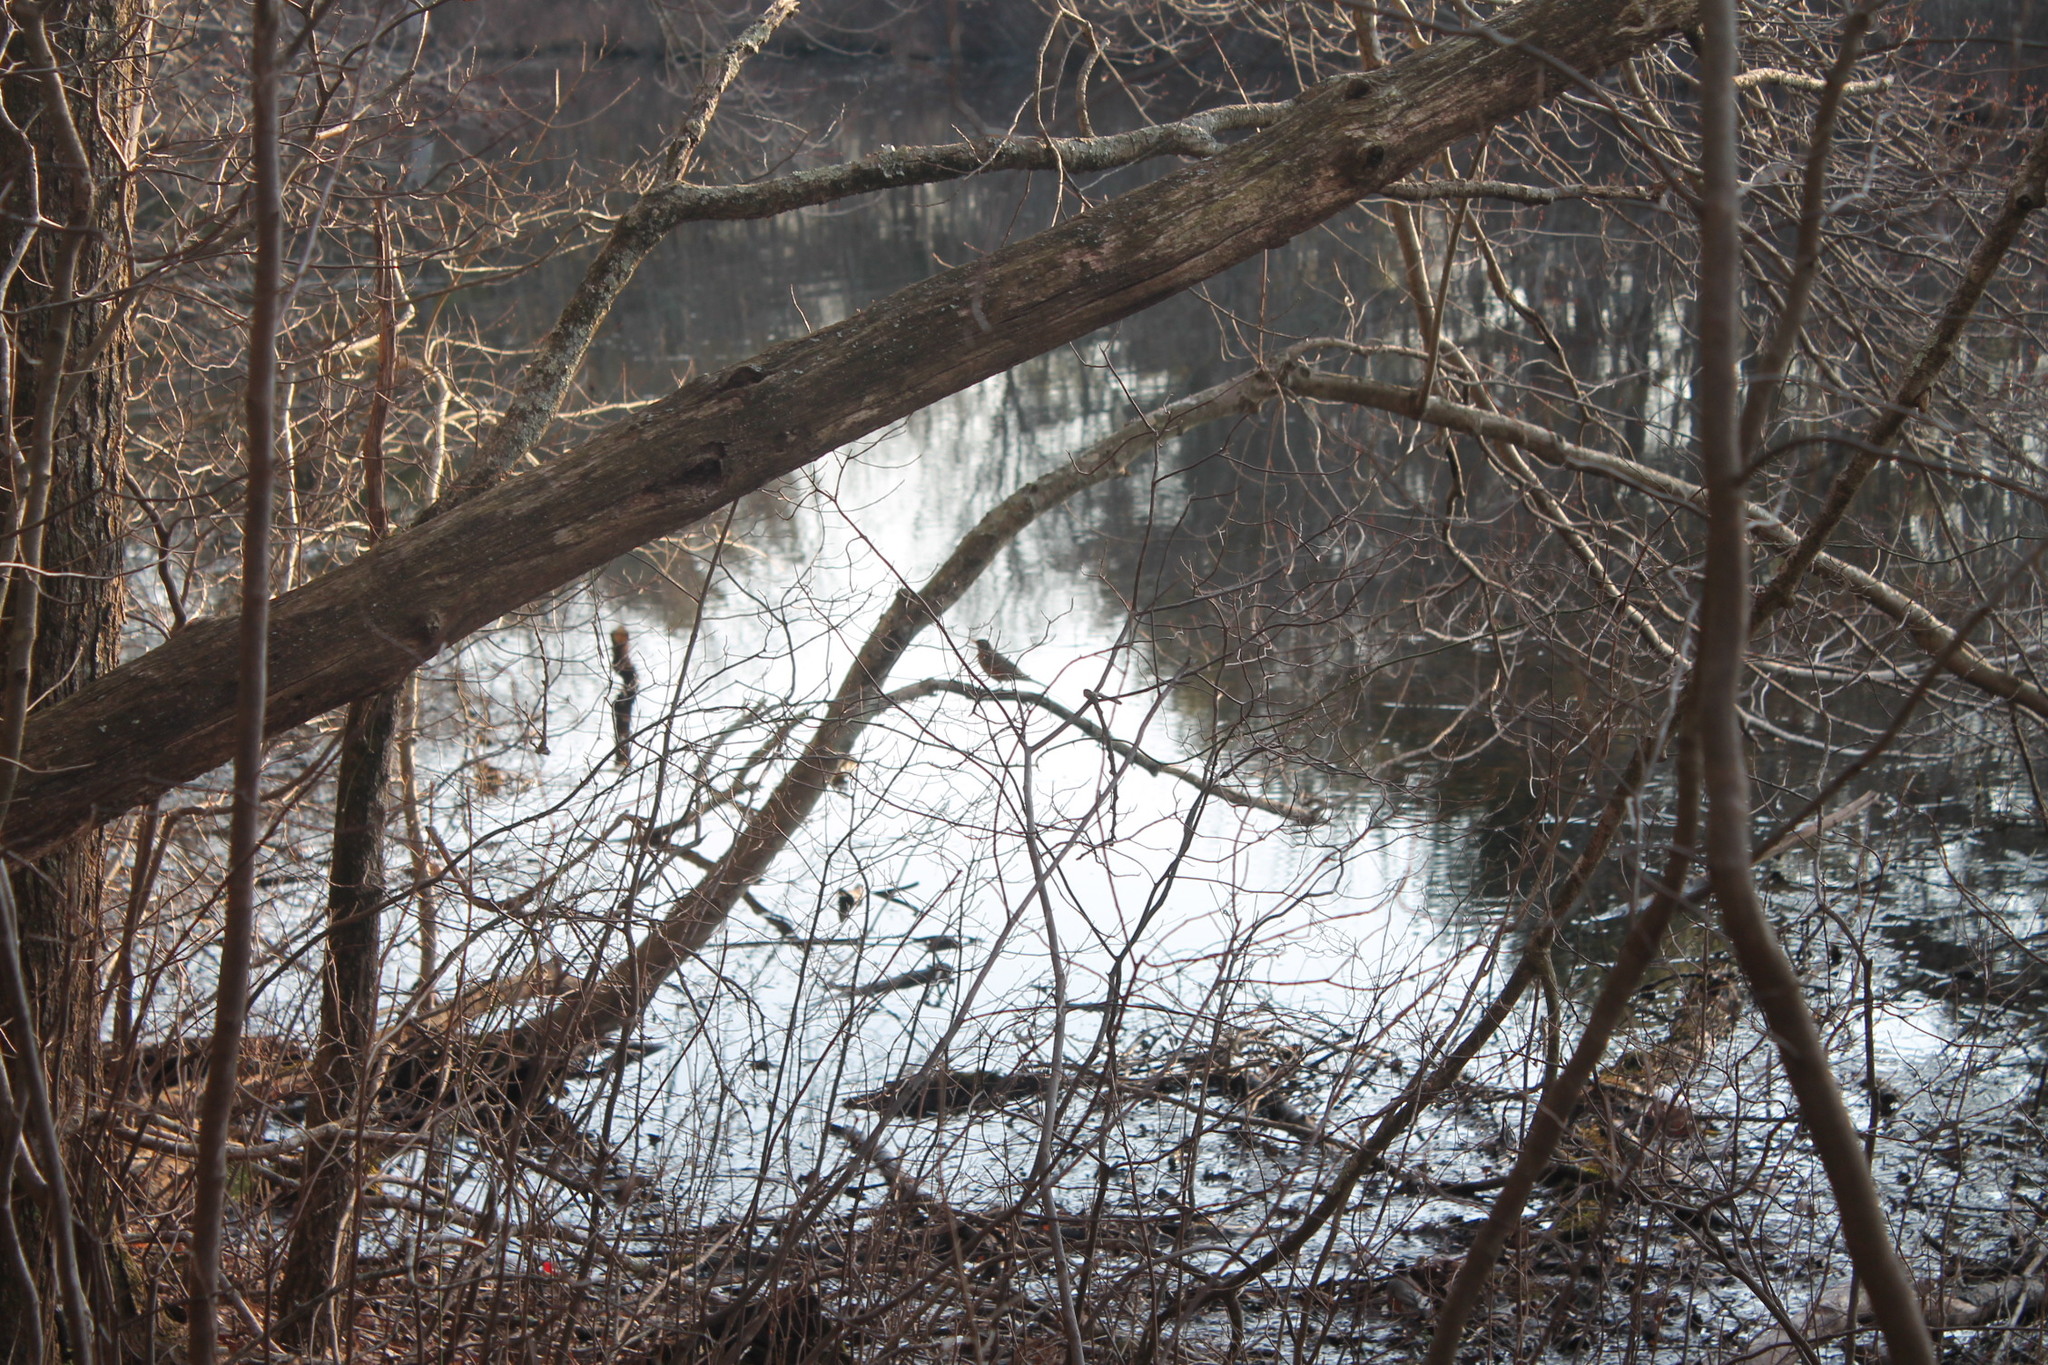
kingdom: Animalia
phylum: Chordata
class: Aves
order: Passeriformes
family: Turdidae
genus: Turdus
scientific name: Turdus migratorius
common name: American robin
